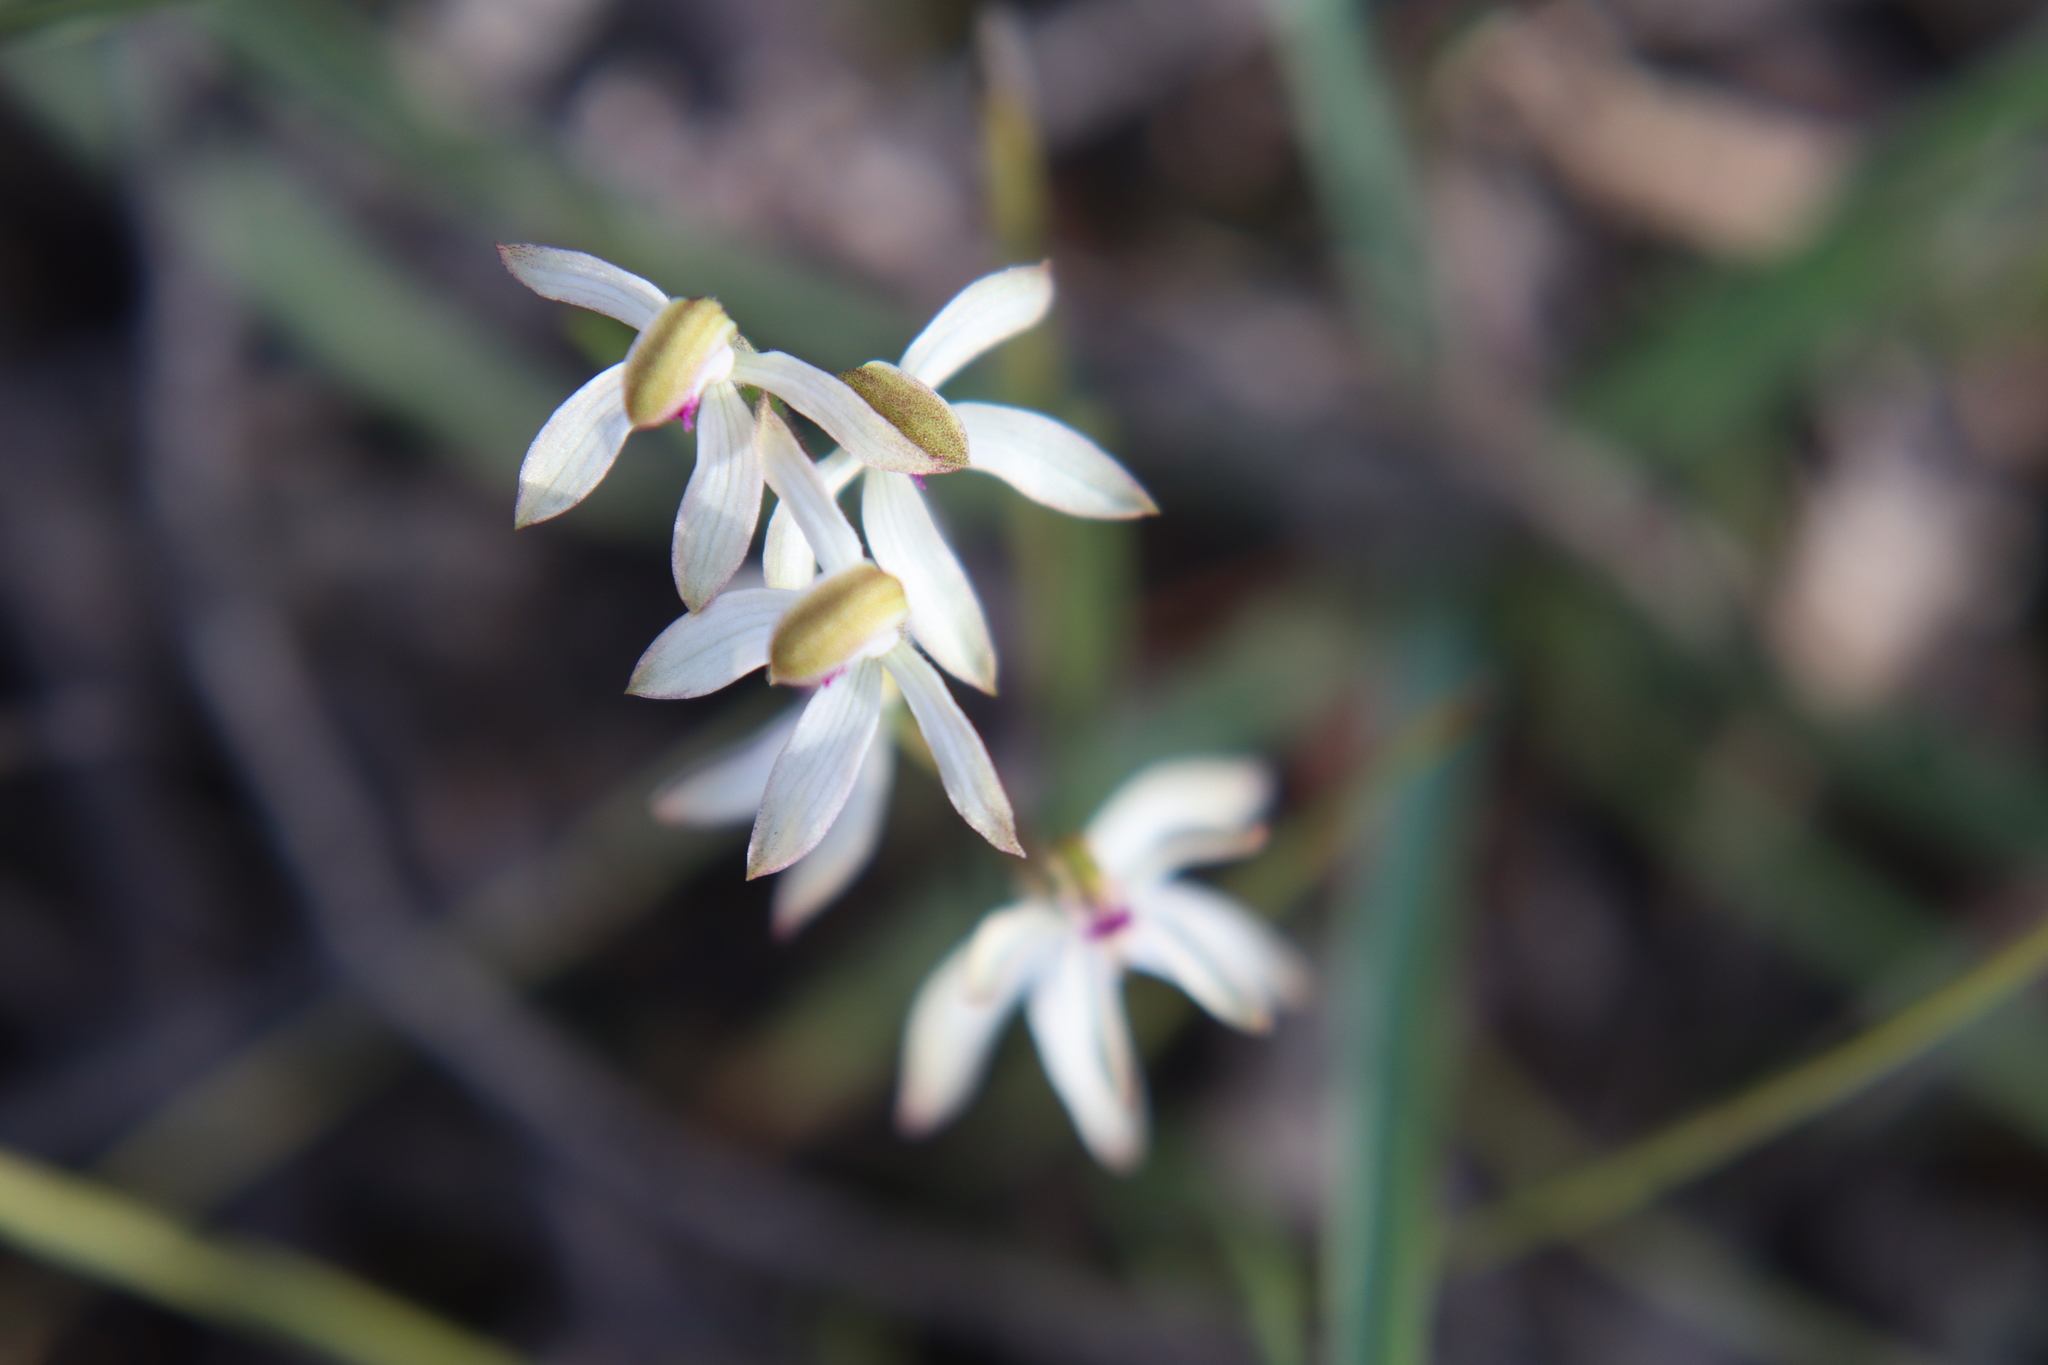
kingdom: Plantae
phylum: Tracheophyta
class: Liliopsida
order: Asparagales
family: Orchidaceae
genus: Caladenia
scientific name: Caladenia cucullata
